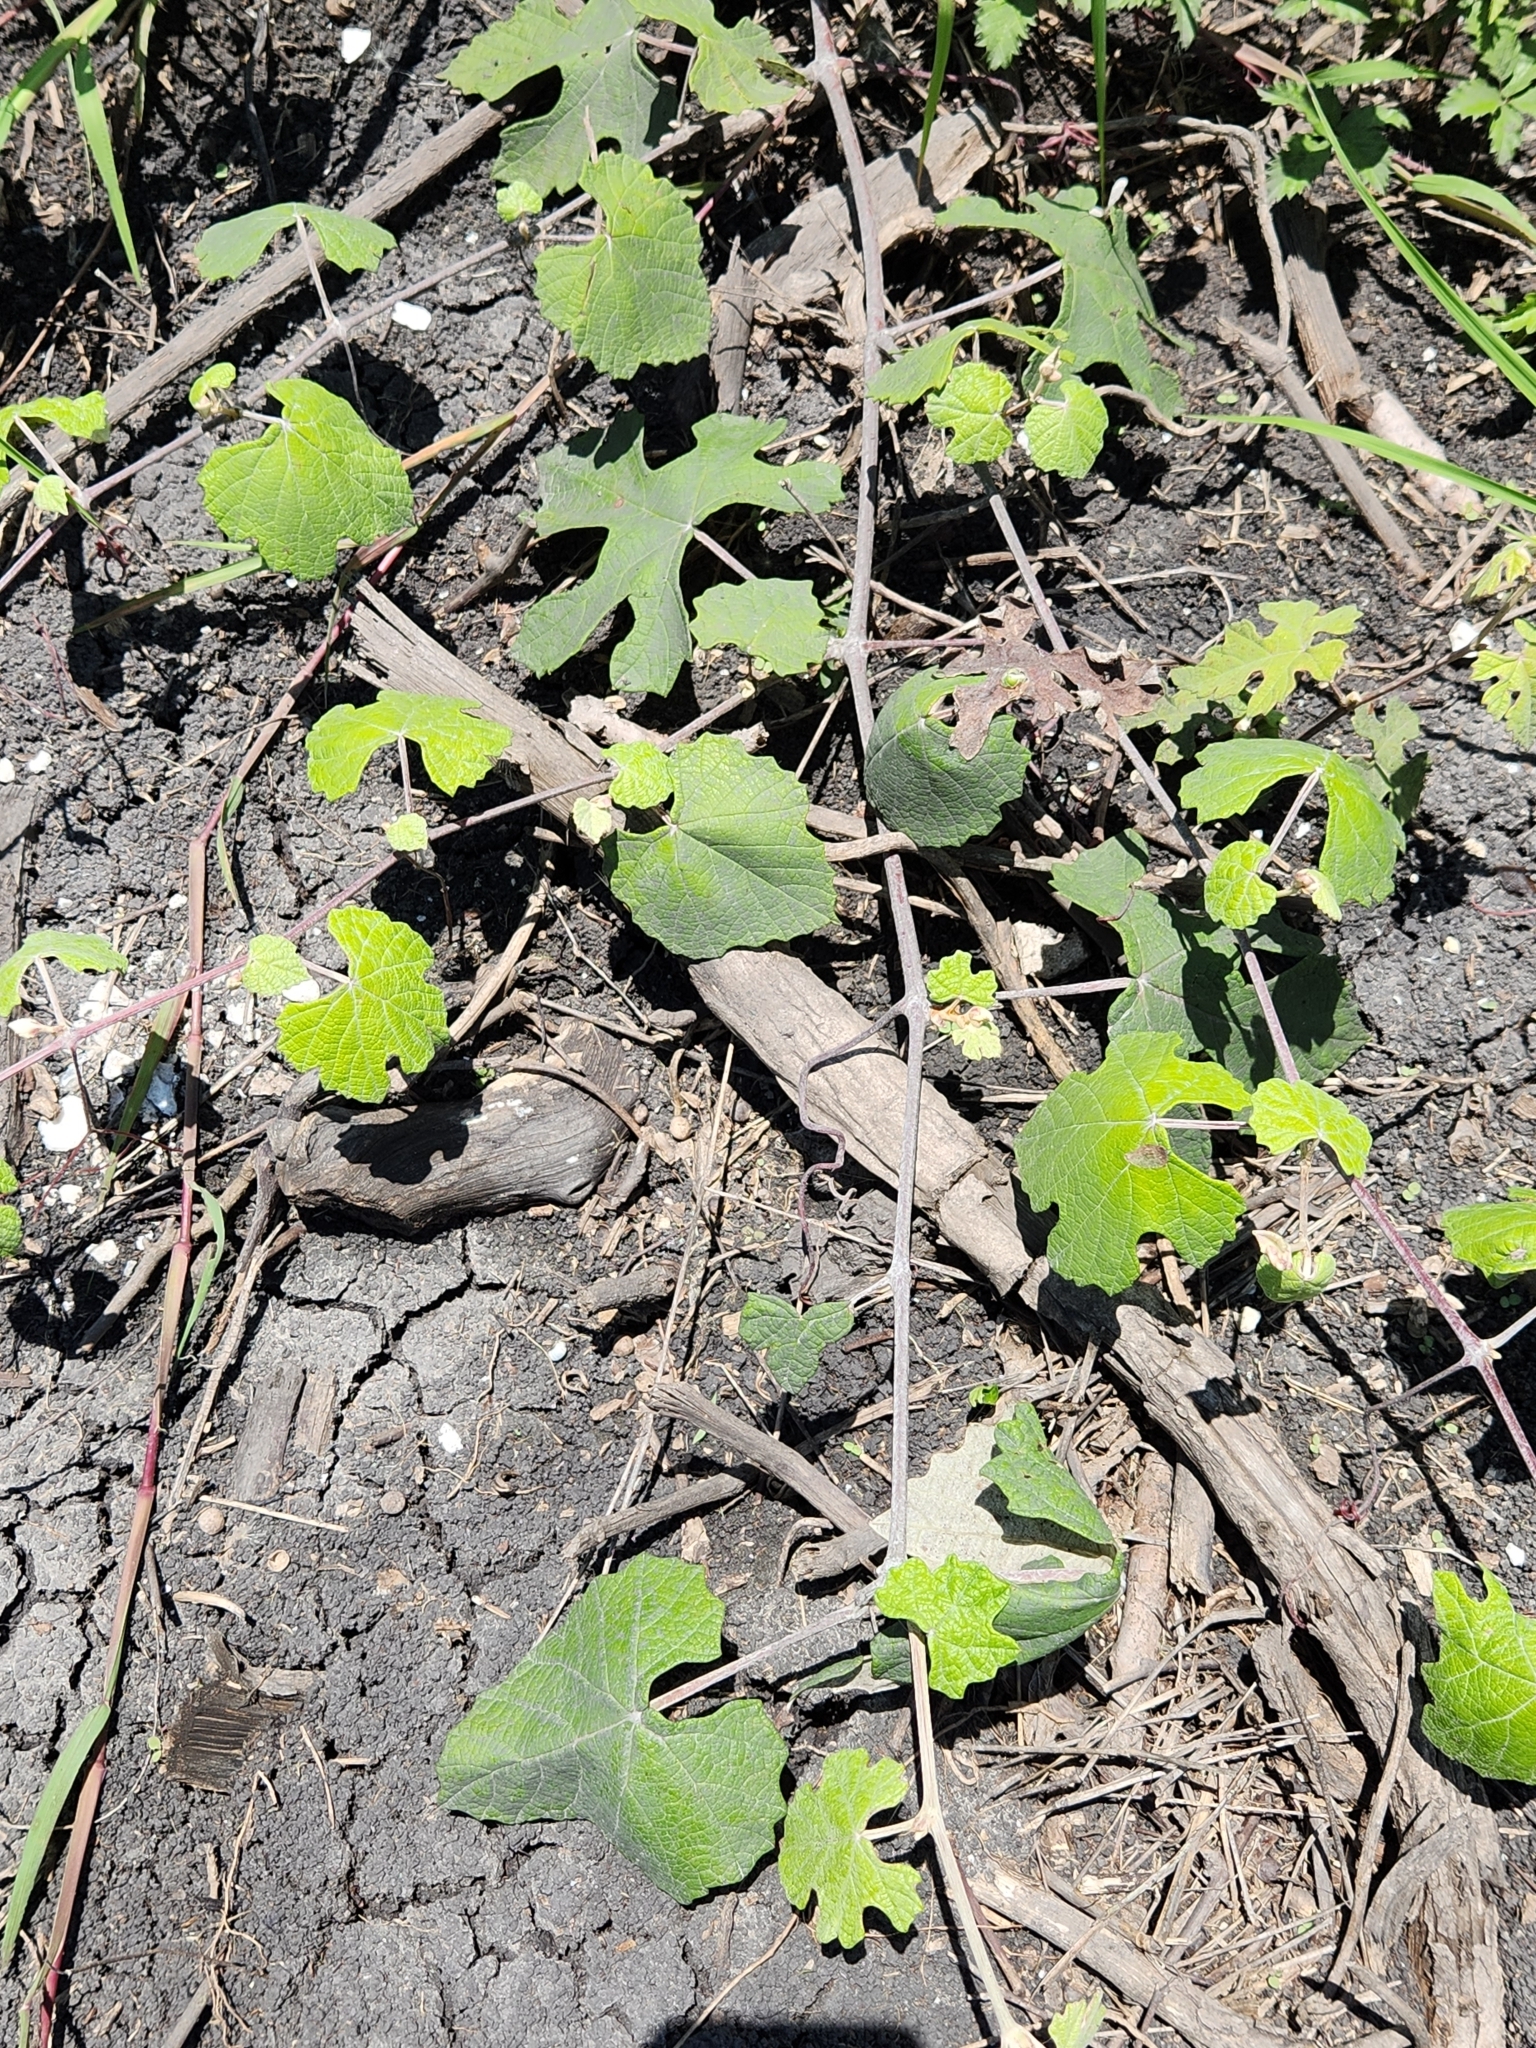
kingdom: Plantae
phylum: Tracheophyta
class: Magnoliopsida
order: Vitales
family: Vitaceae
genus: Vitis
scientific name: Vitis mustangensis
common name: Mustang grape
